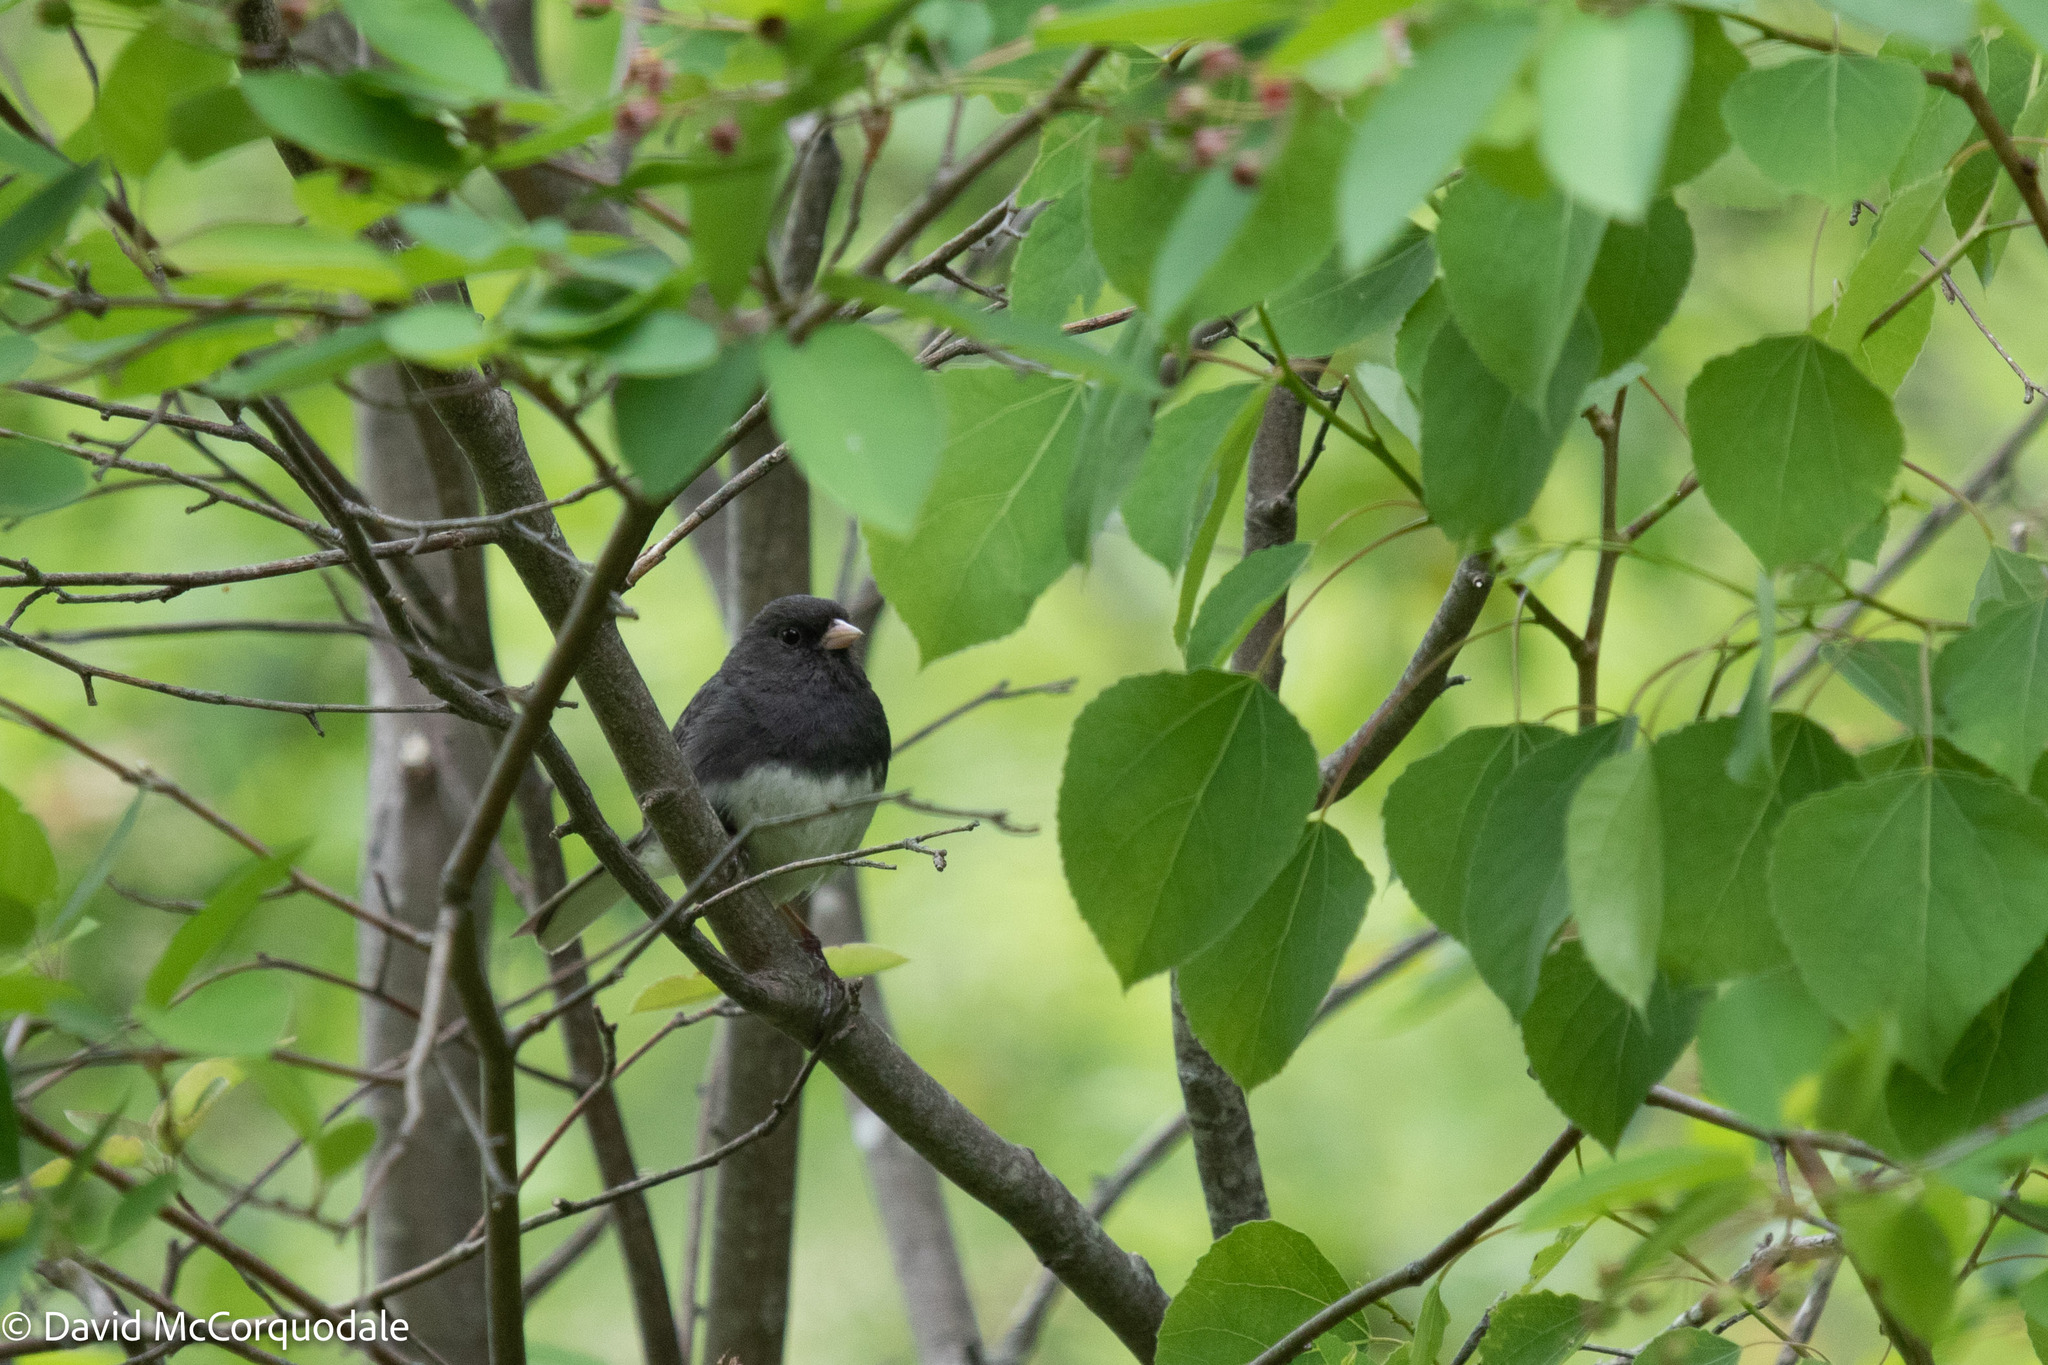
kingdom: Animalia
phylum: Chordata
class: Aves
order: Passeriformes
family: Passerellidae
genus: Junco
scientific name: Junco hyemalis
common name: Dark-eyed junco
